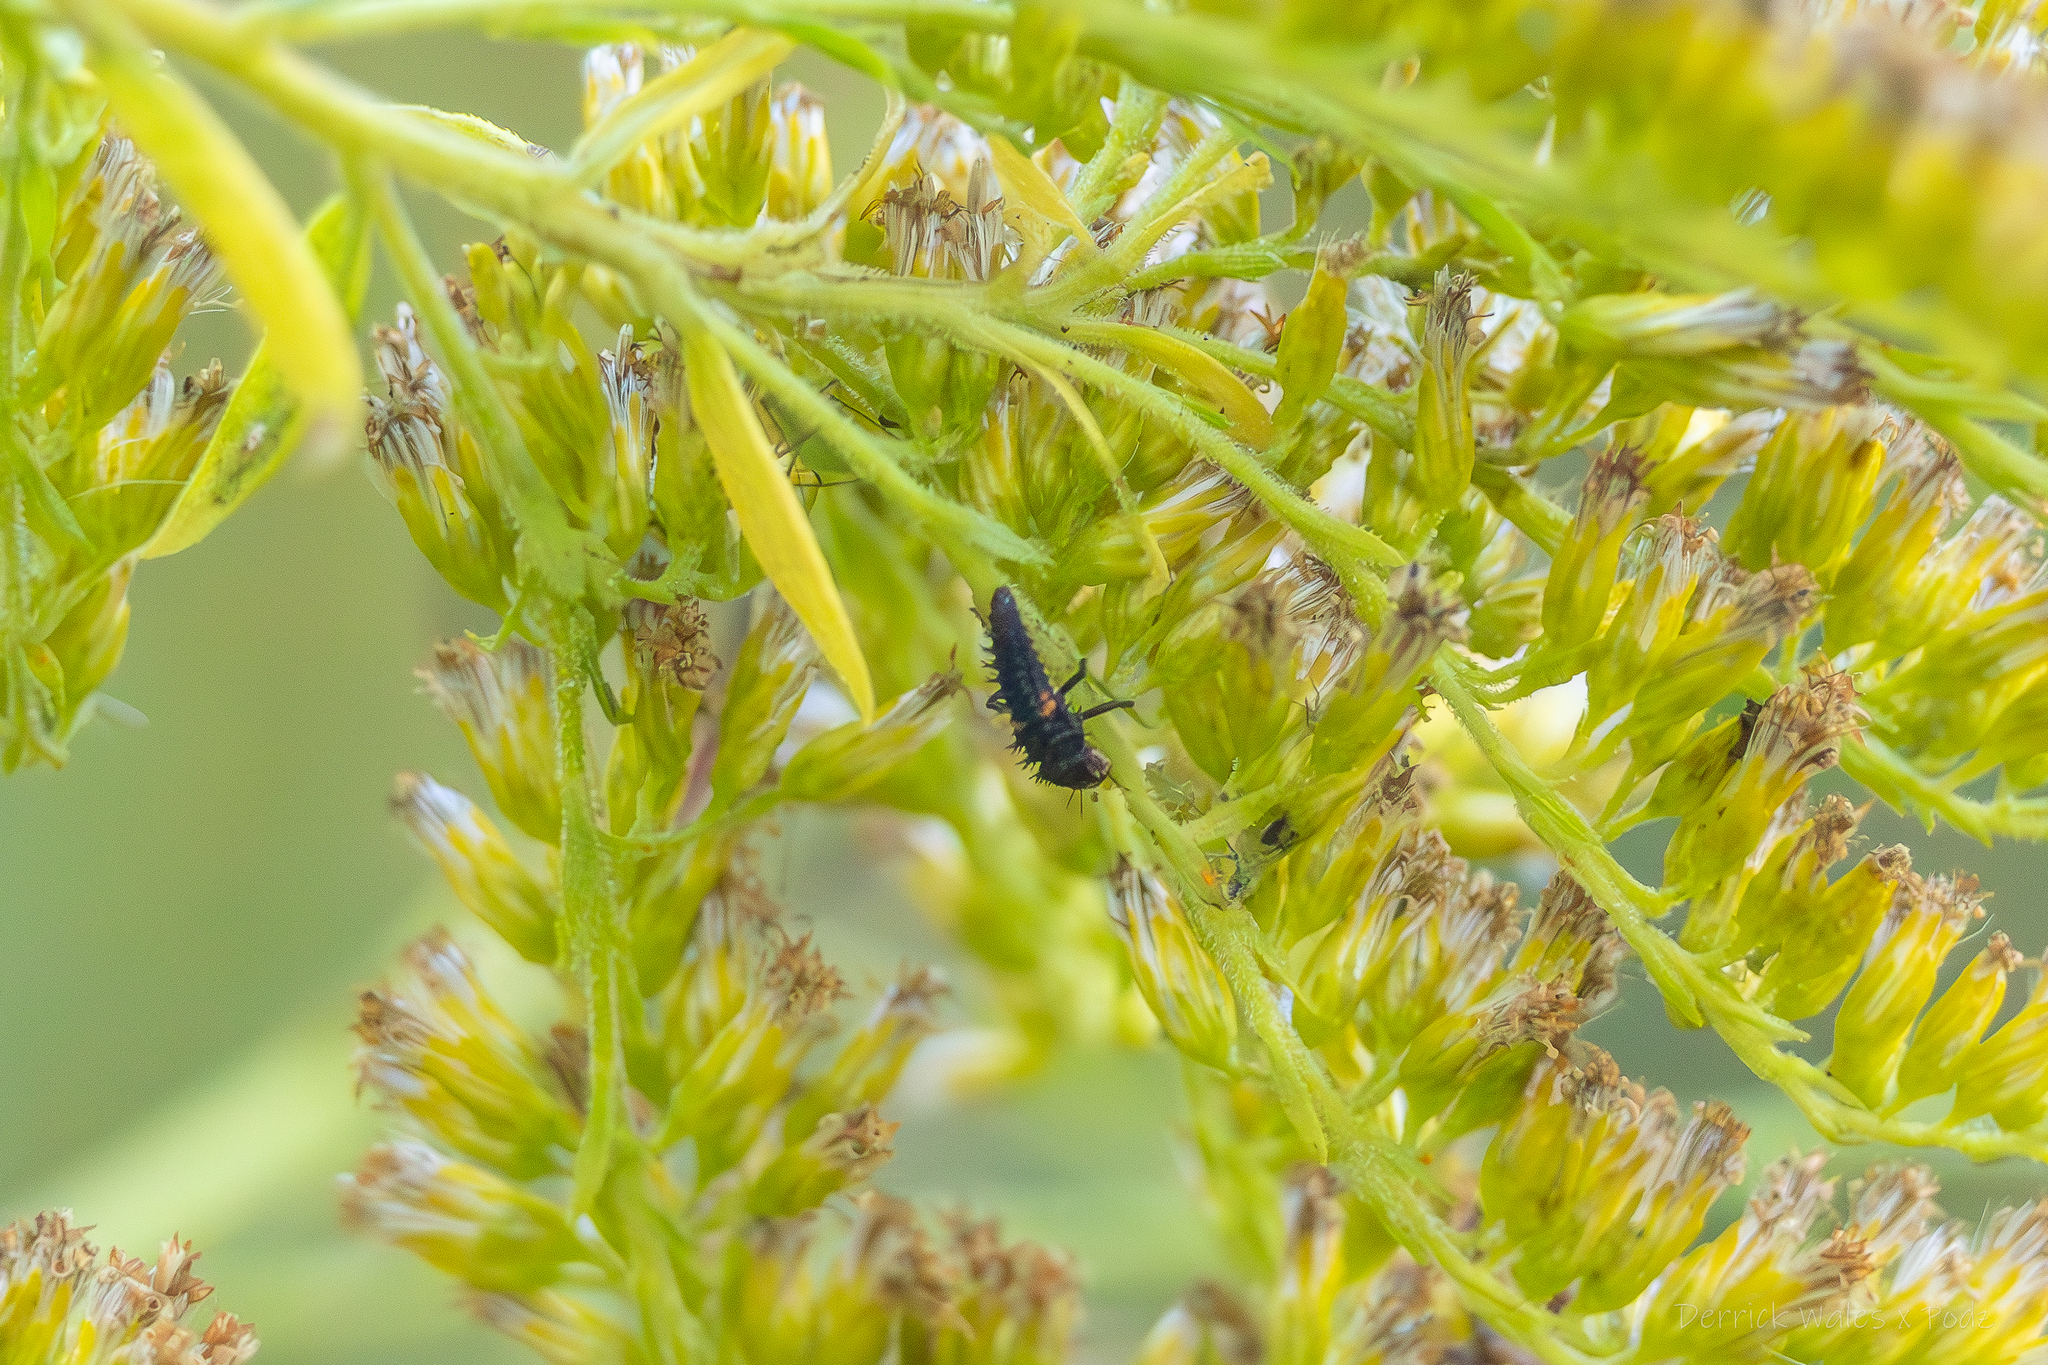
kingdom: Animalia
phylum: Arthropoda
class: Insecta
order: Coleoptera
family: Coccinellidae
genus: Harmonia
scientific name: Harmonia axyridis
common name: Harlequin ladybird
